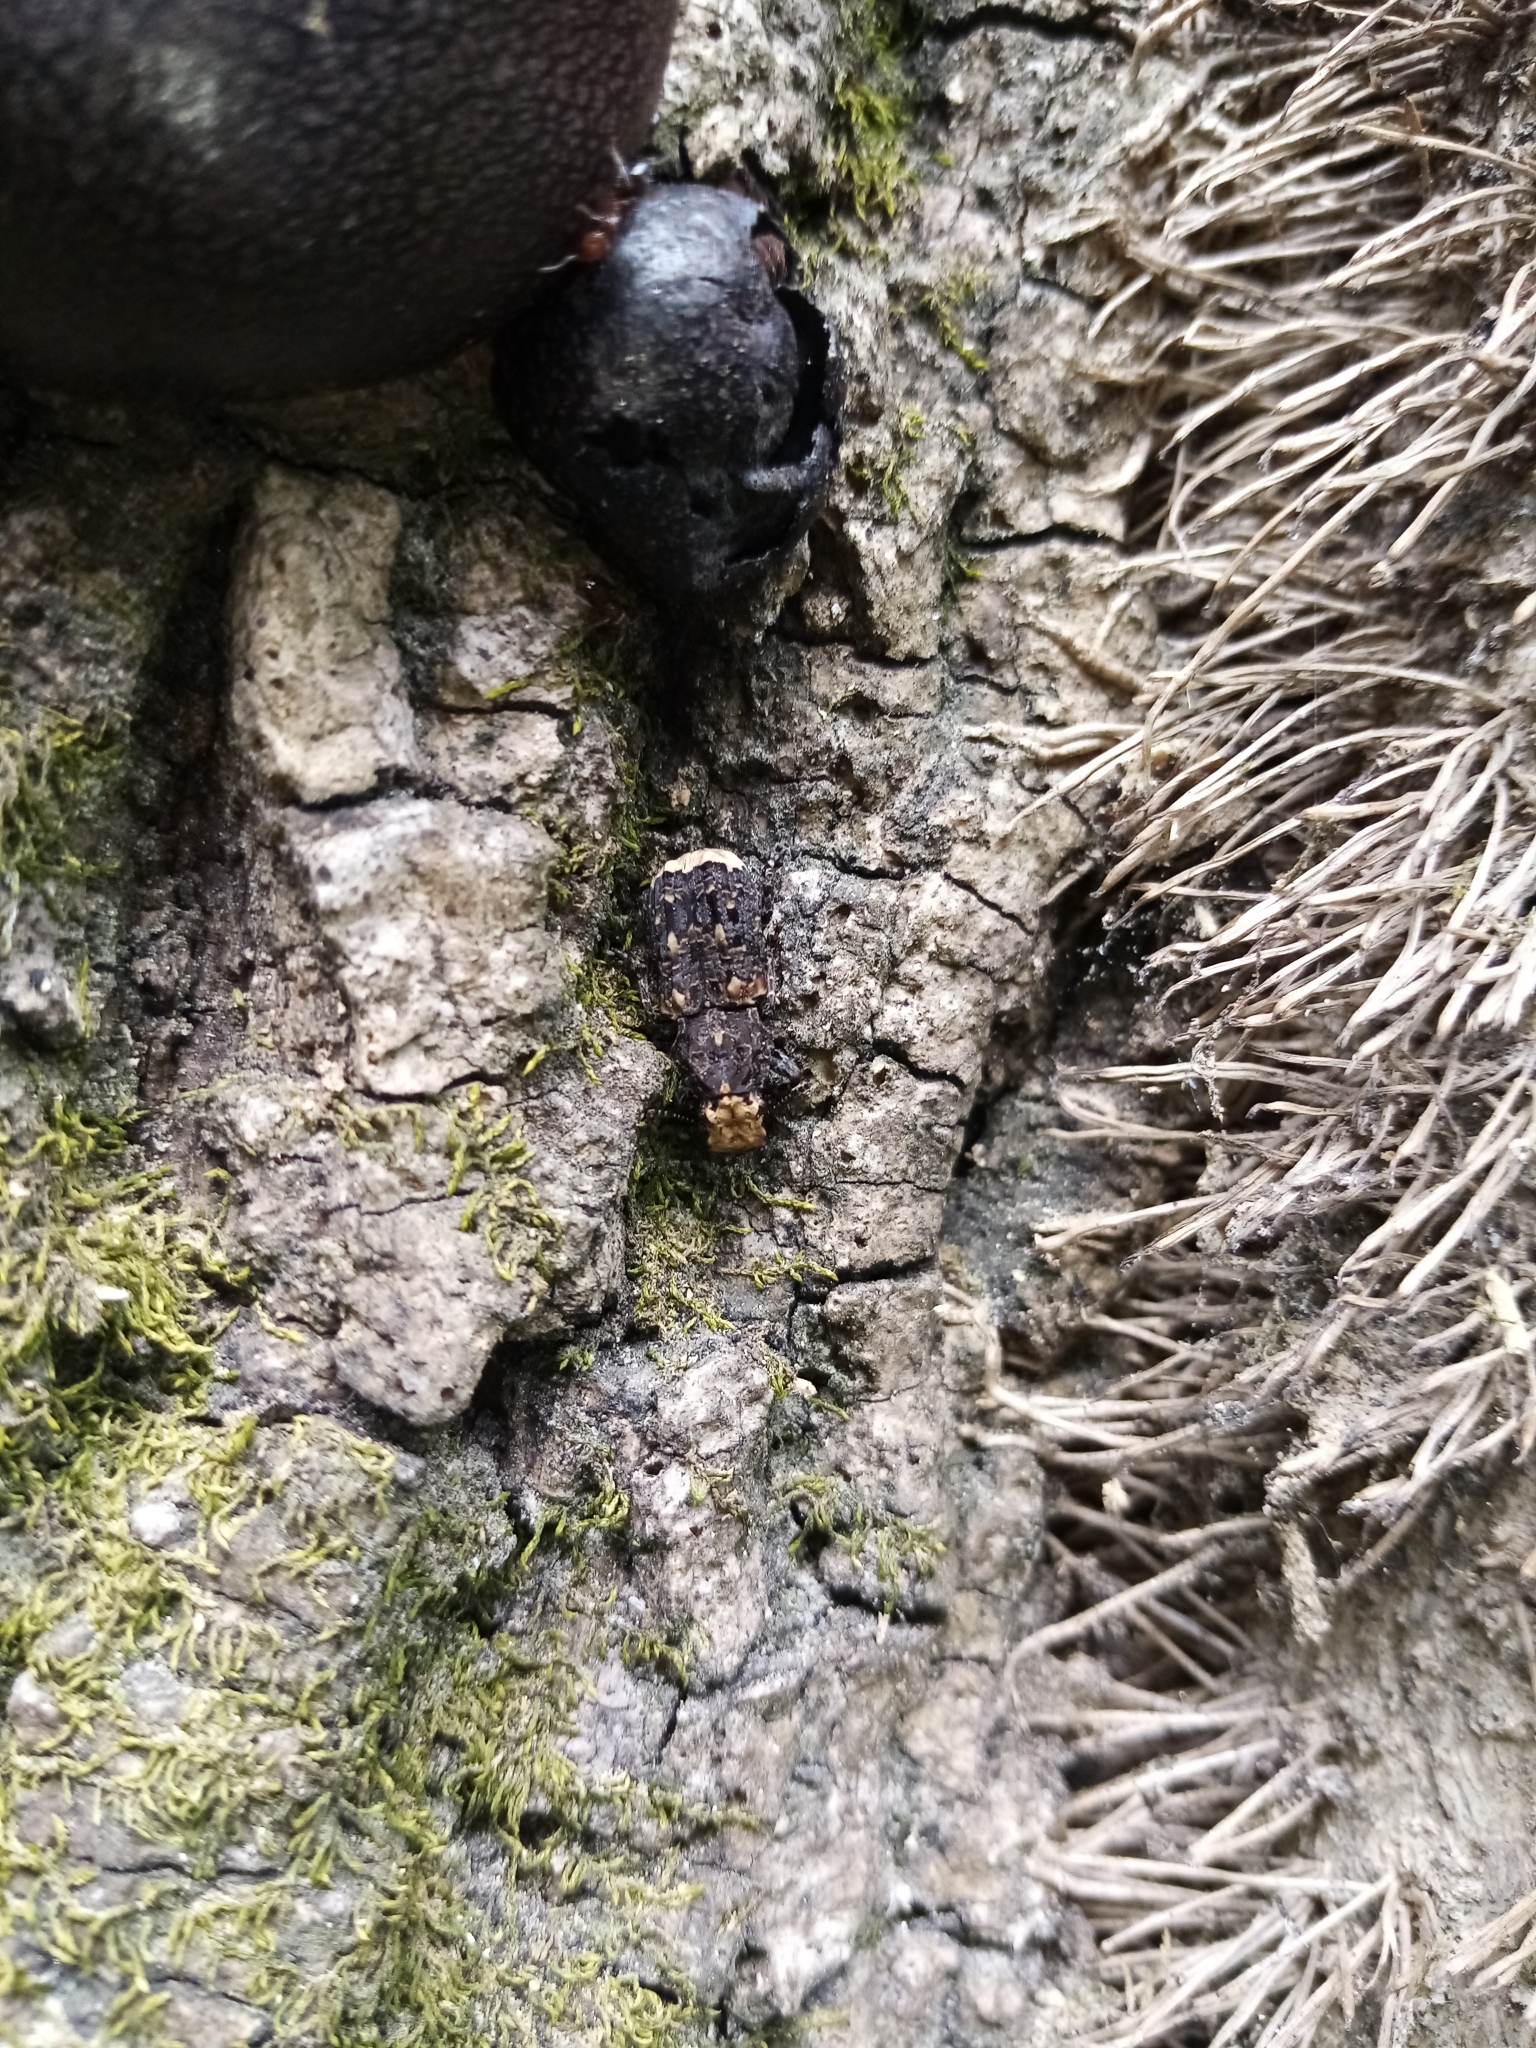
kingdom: Animalia
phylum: Arthropoda
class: Insecta
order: Coleoptera
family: Anthribidae
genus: Platyrhinus
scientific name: Platyrhinus resinosus
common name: Cramp-ball fungus weevil
